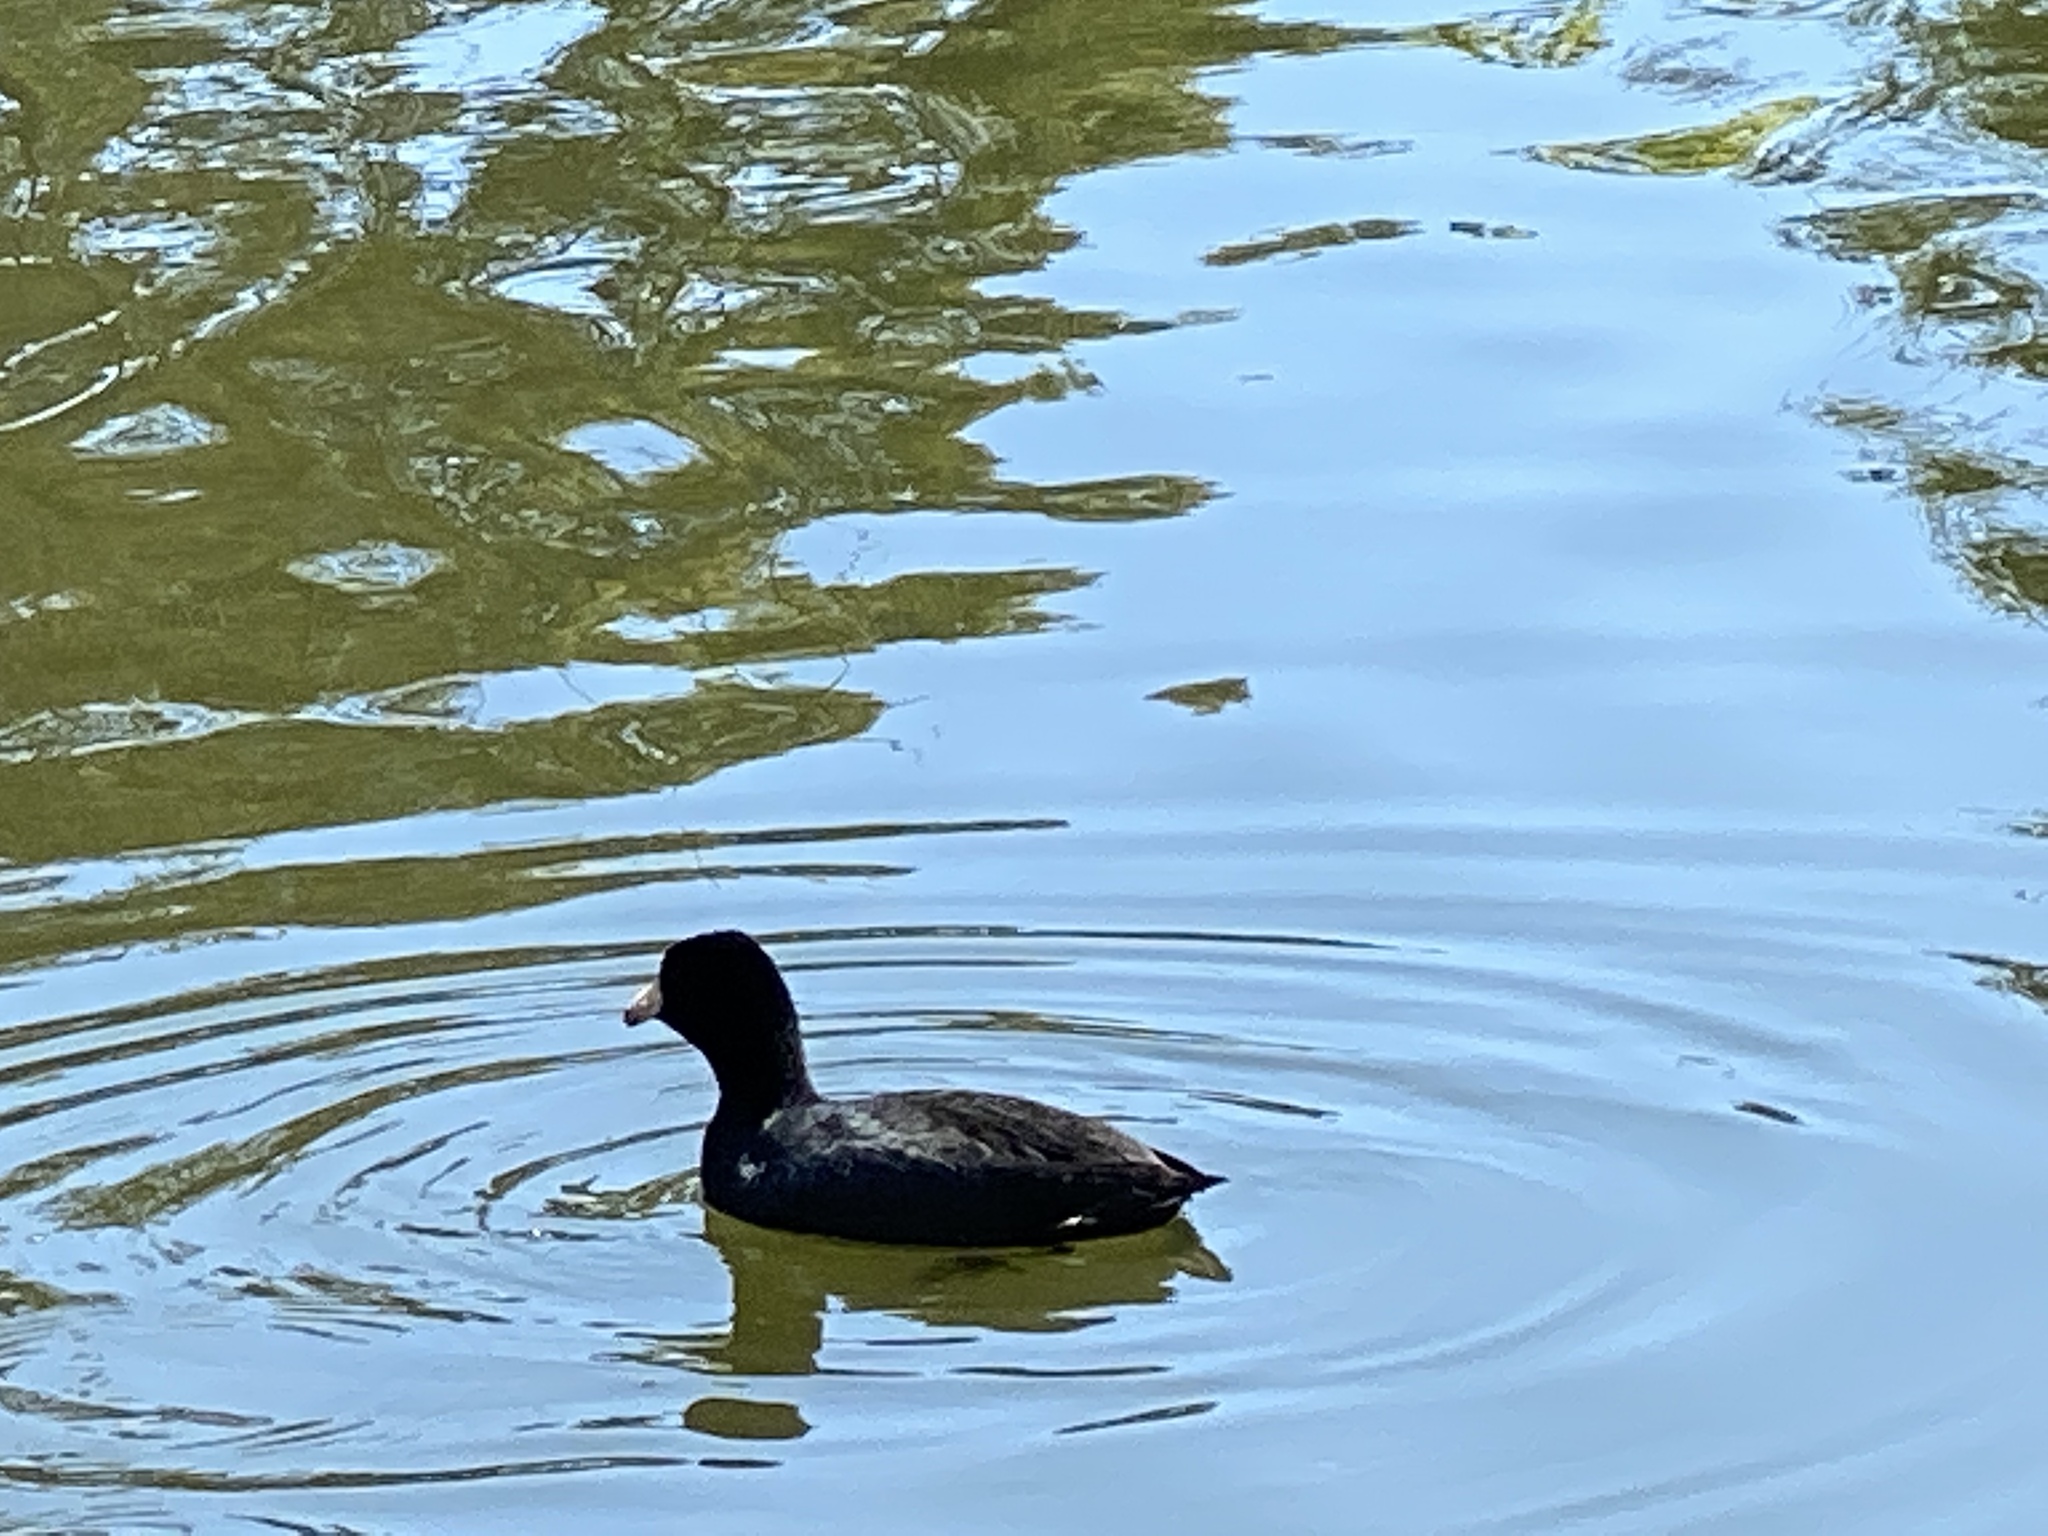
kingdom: Animalia
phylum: Chordata
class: Aves
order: Gruiformes
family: Rallidae
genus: Fulica
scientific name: Fulica americana
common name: American coot
